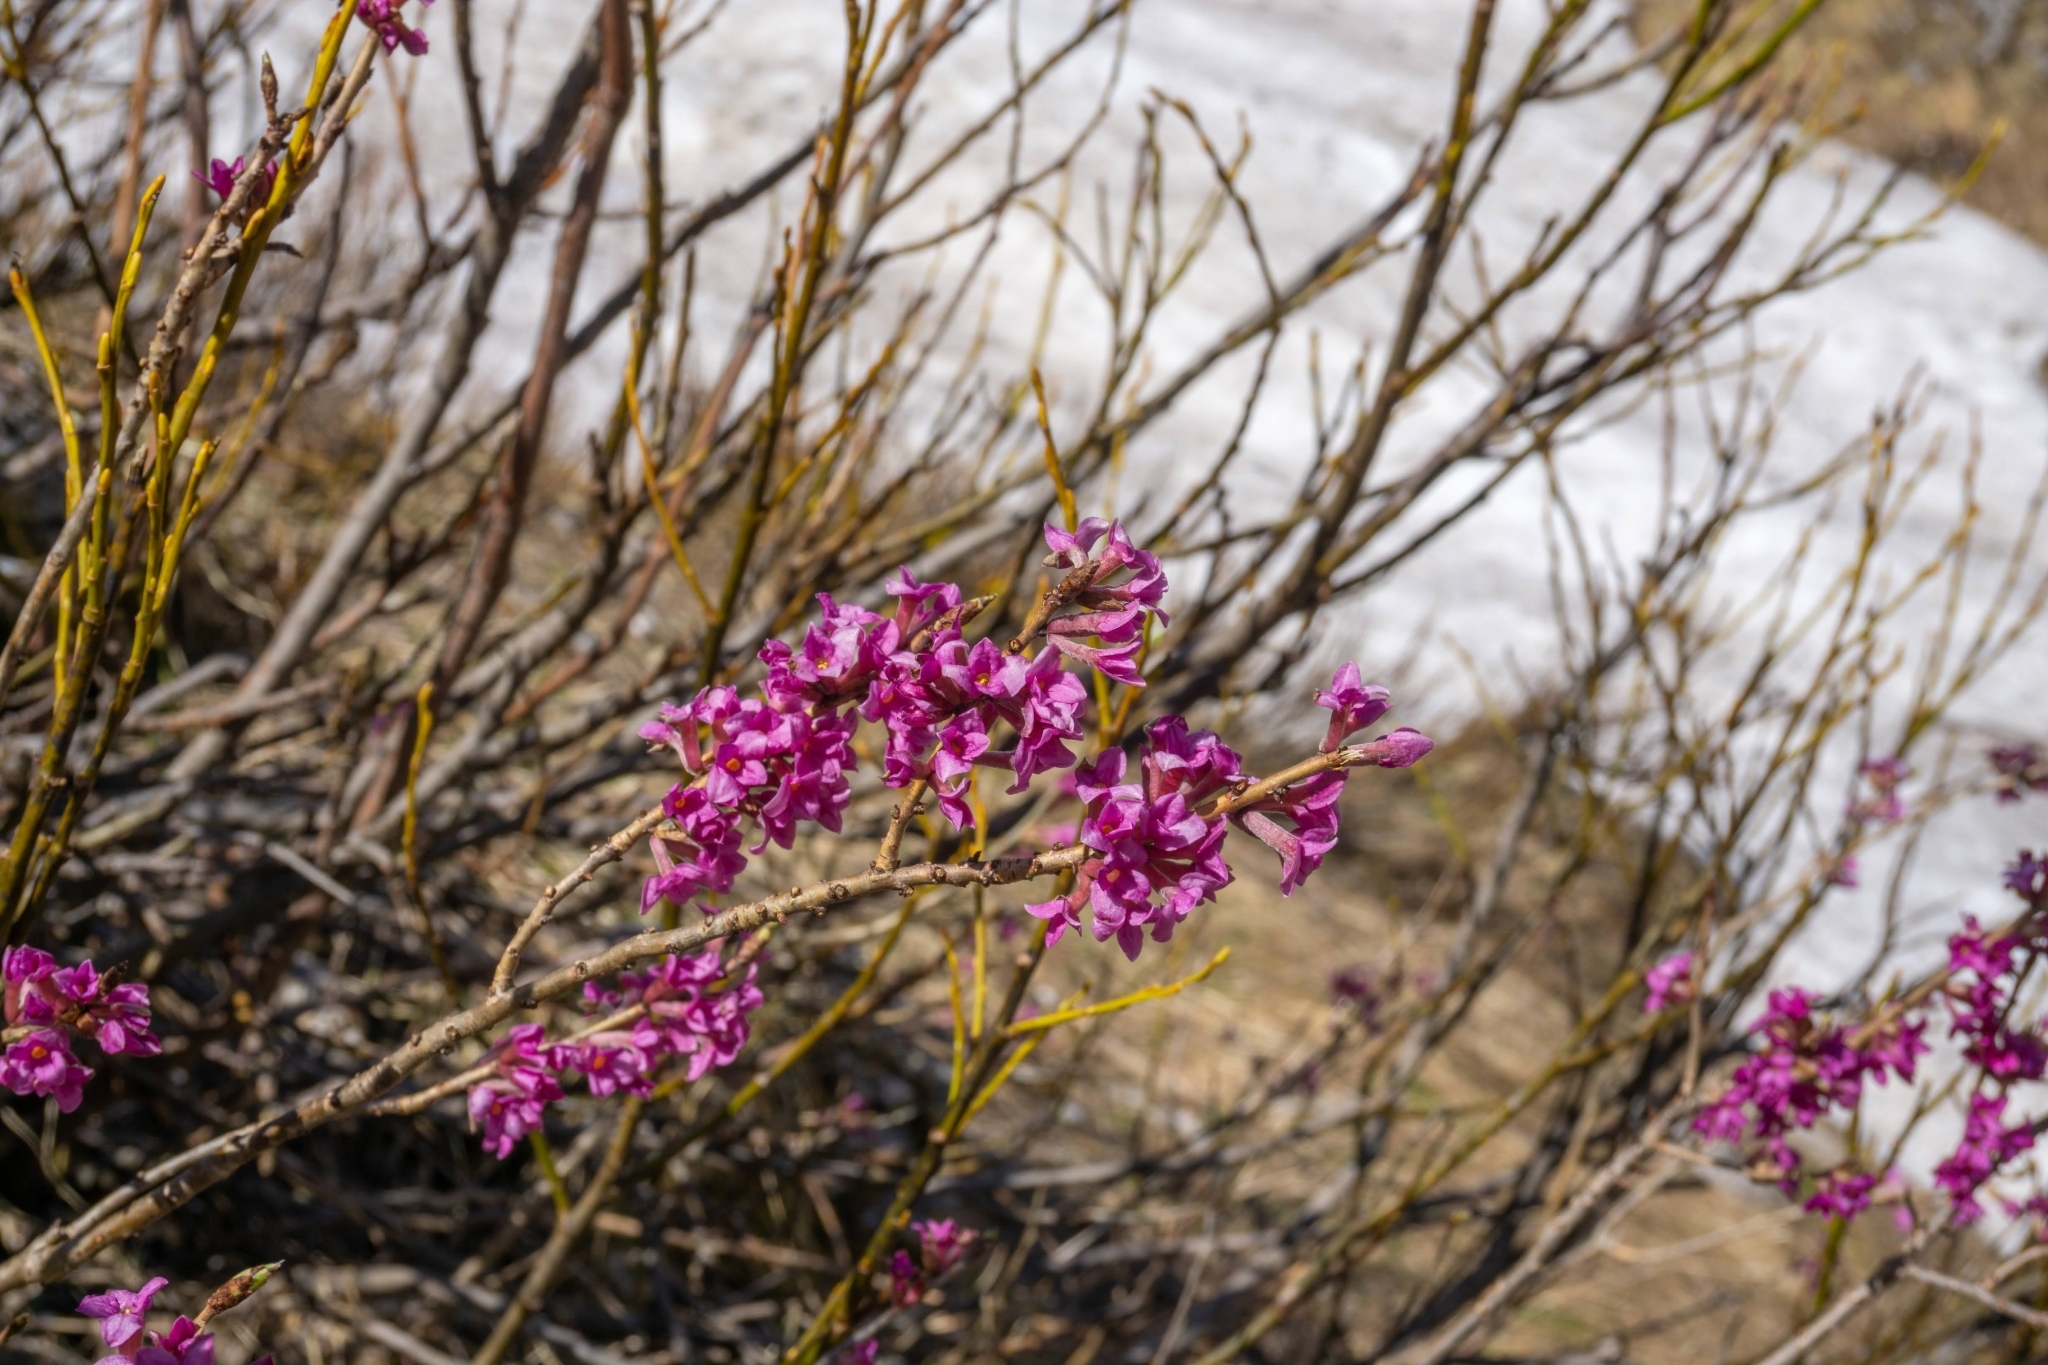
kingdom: Plantae
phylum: Tracheophyta
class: Magnoliopsida
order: Malvales
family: Thymelaeaceae
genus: Daphne
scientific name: Daphne mezereum
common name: Mezereon
